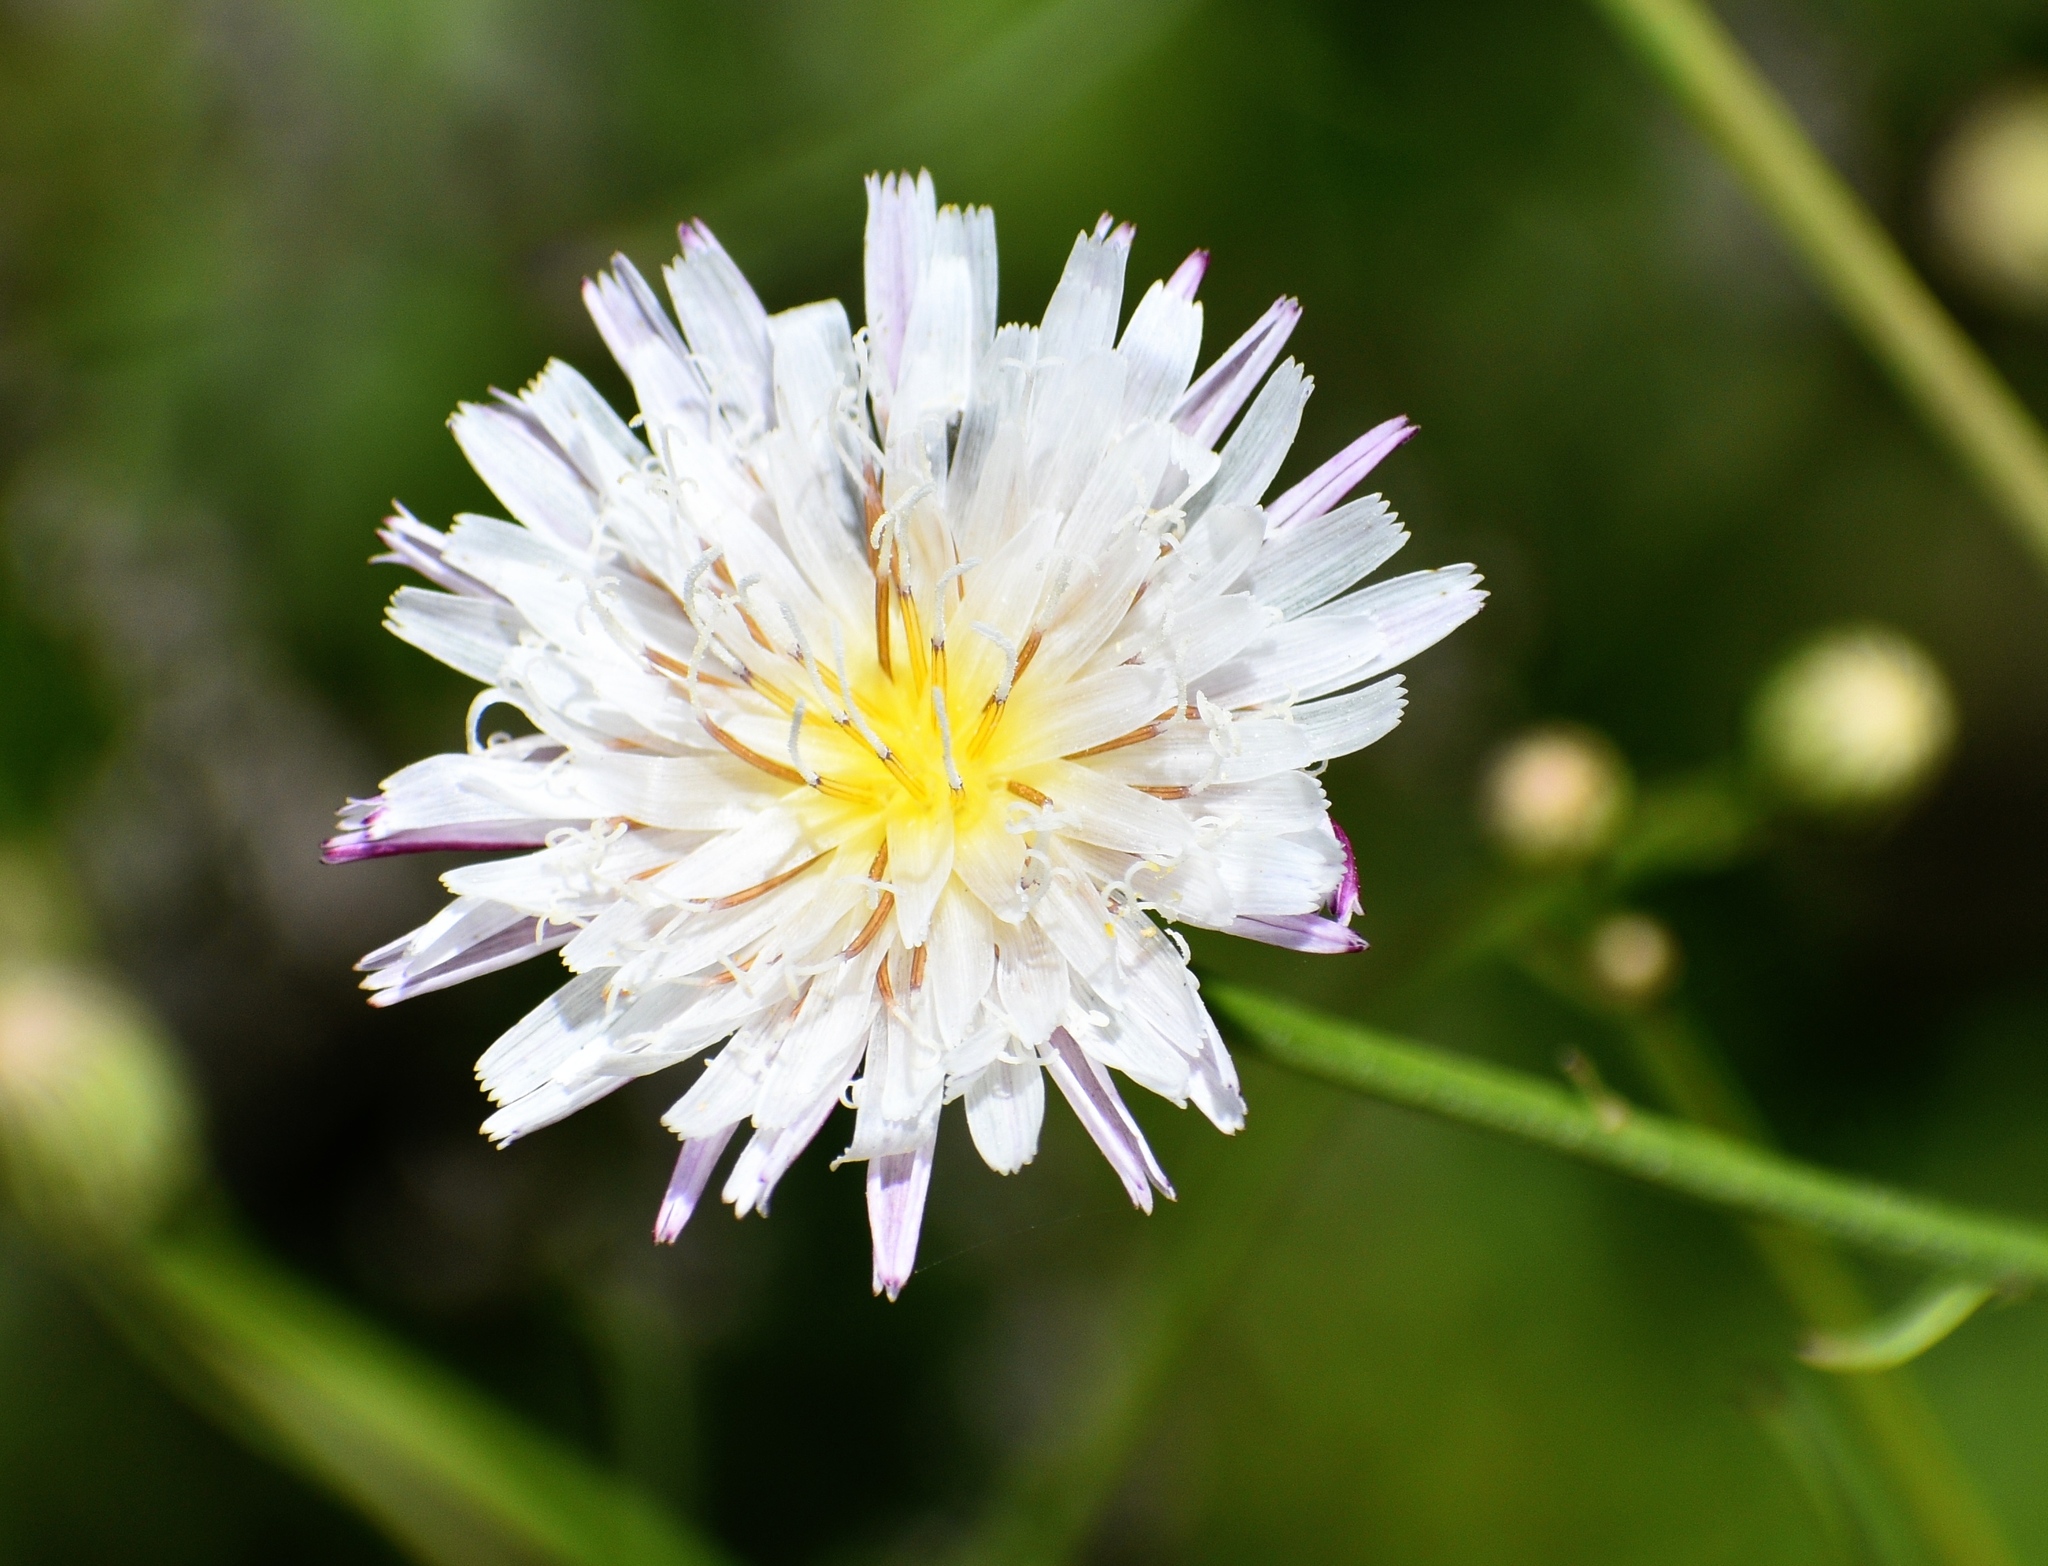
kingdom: Plantae
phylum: Tracheophyta
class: Magnoliopsida
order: Asterales
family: Asteraceae
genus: Malacothrix
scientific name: Malacothrix saxatilis
